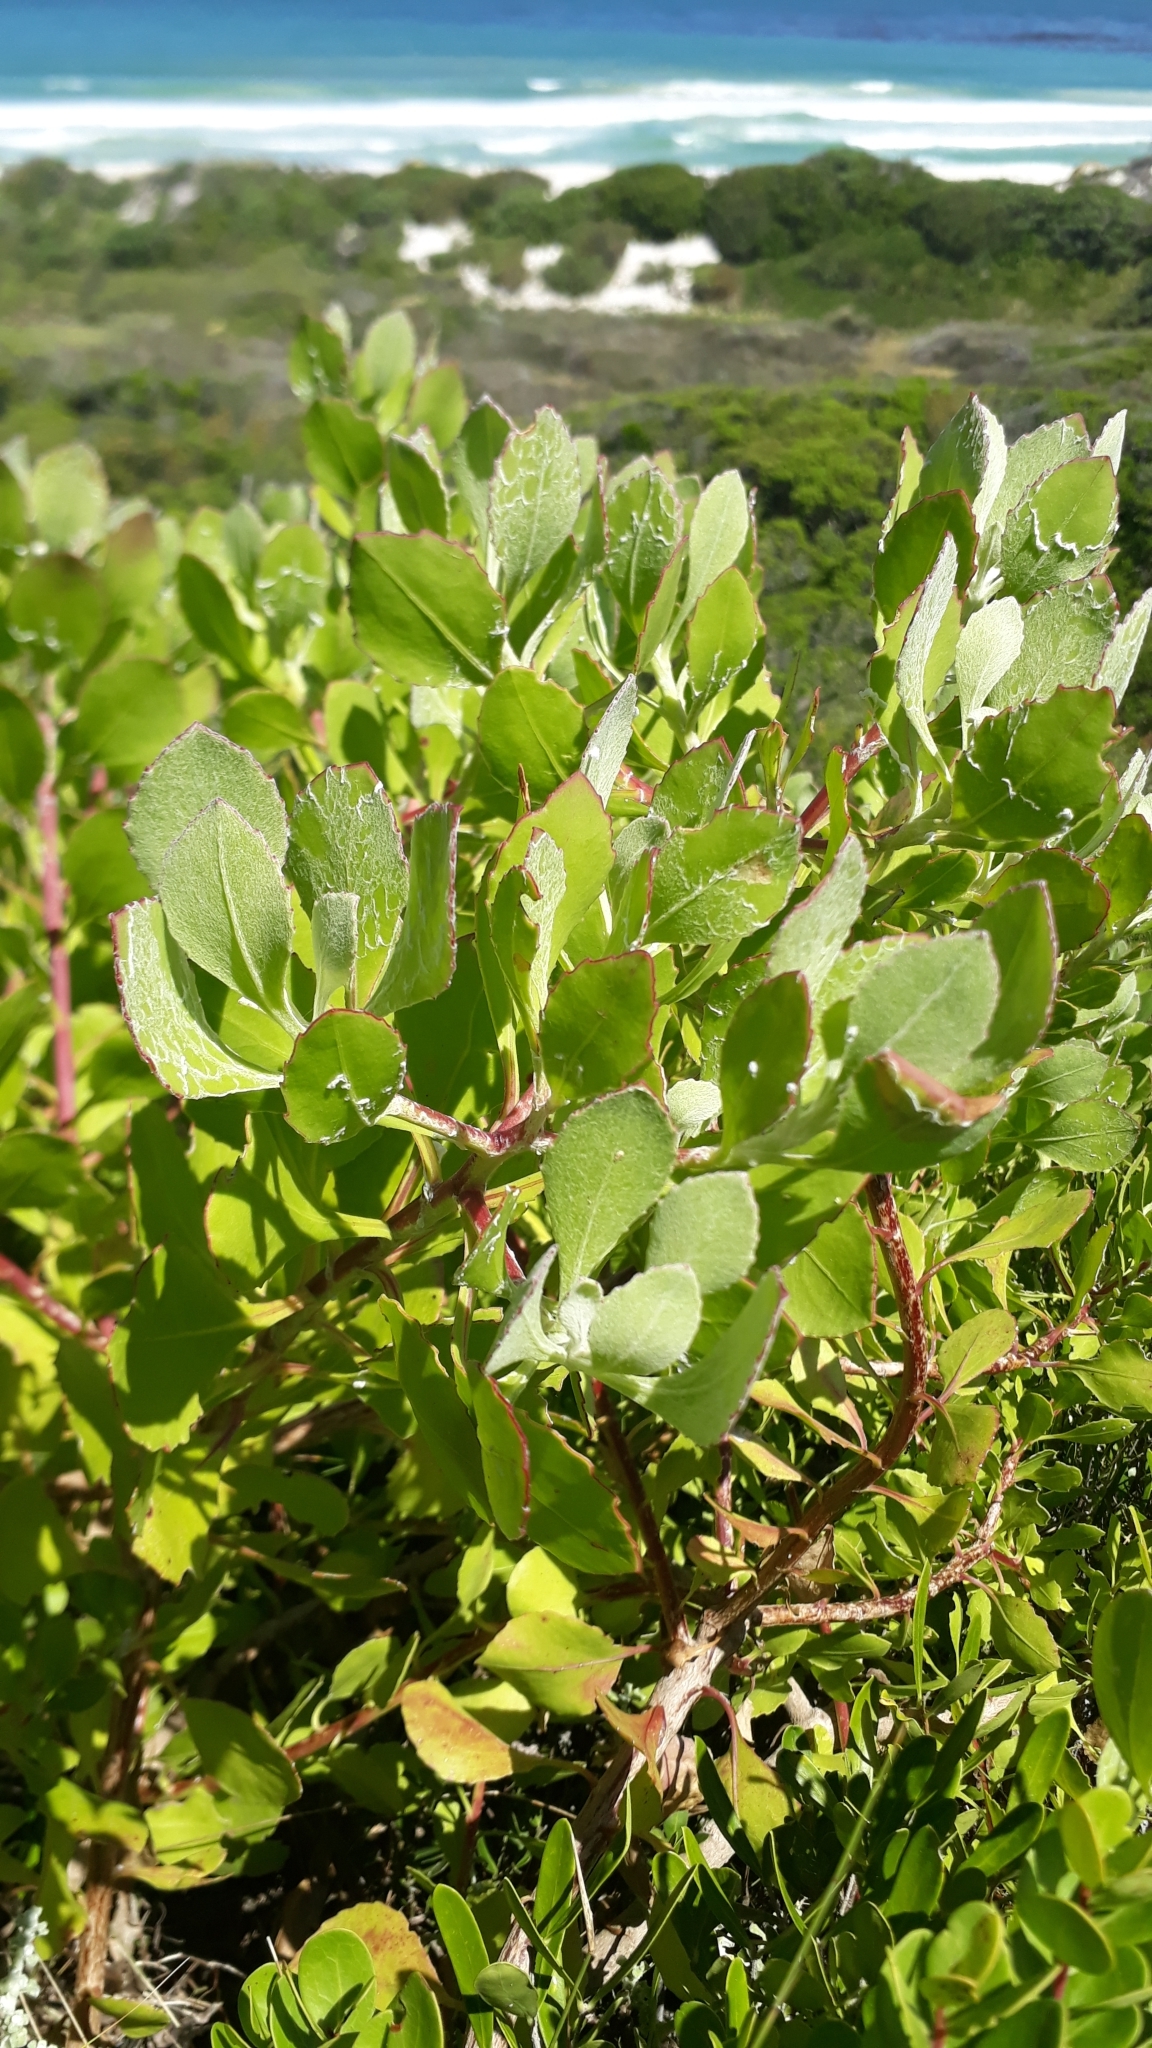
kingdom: Plantae
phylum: Tracheophyta
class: Magnoliopsida
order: Asterales
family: Asteraceae
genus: Osteospermum
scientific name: Osteospermum moniliferum
